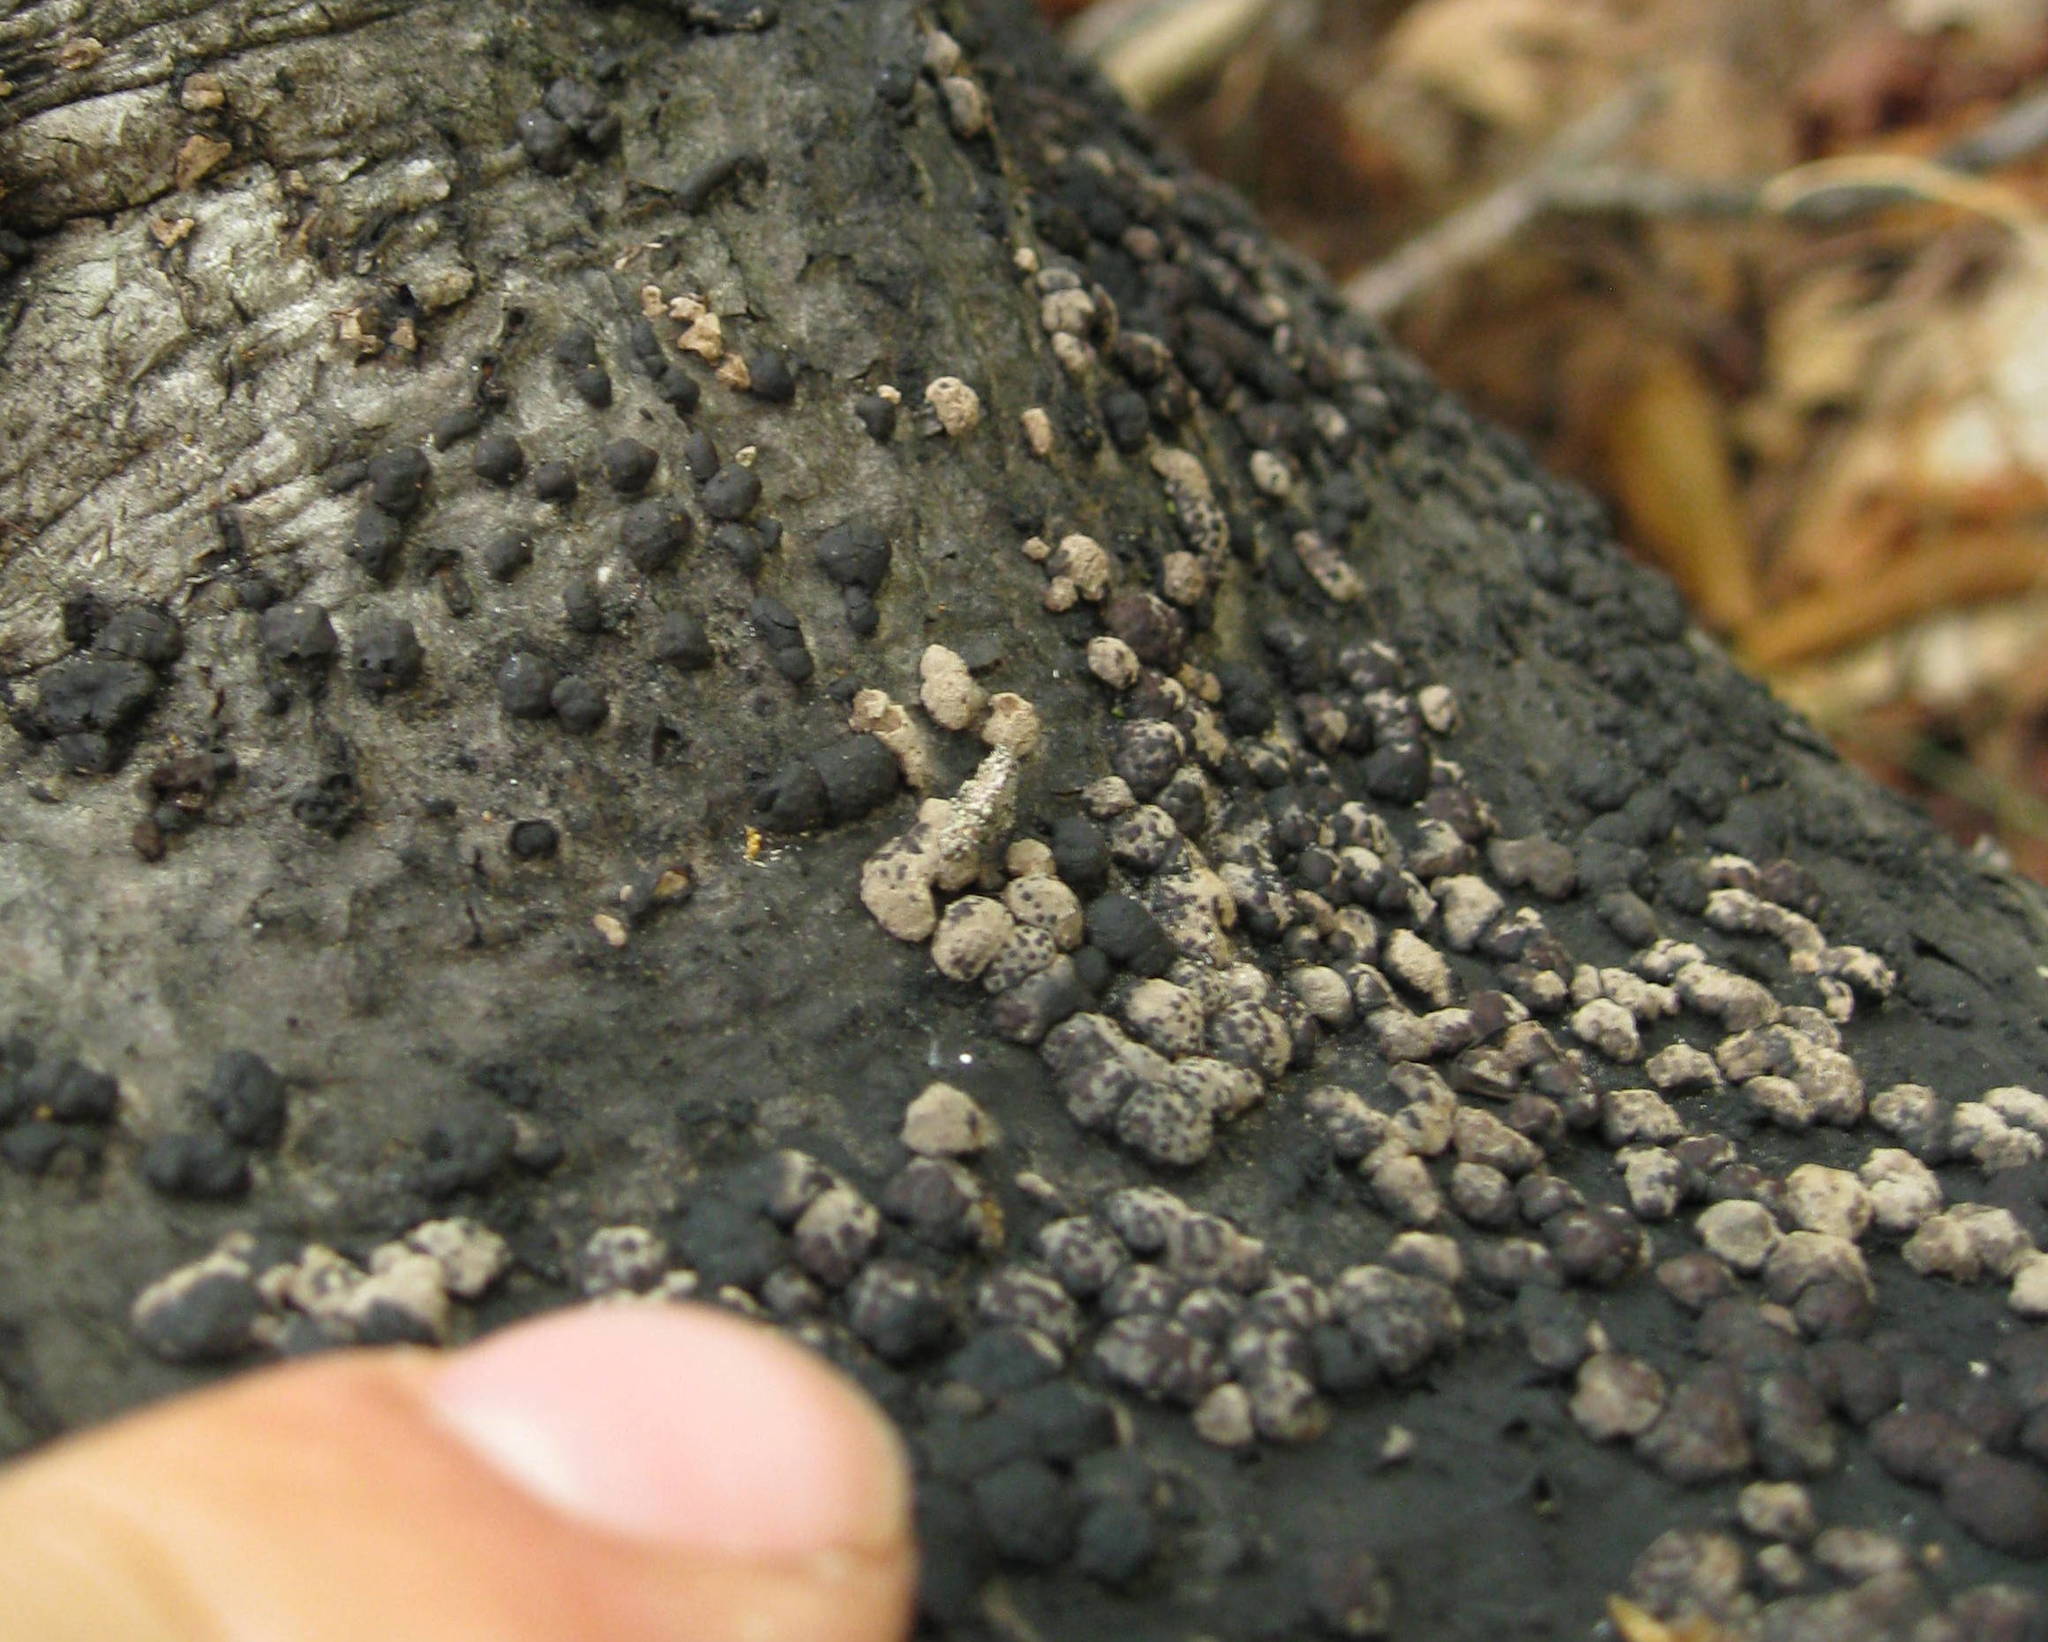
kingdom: Fungi
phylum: Ascomycota
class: Sordariomycetes
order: Xylariales
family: Hypoxylaceae
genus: Annulohypoxylon
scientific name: Annulohypoxylon thouarsianum
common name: Cramp balls
